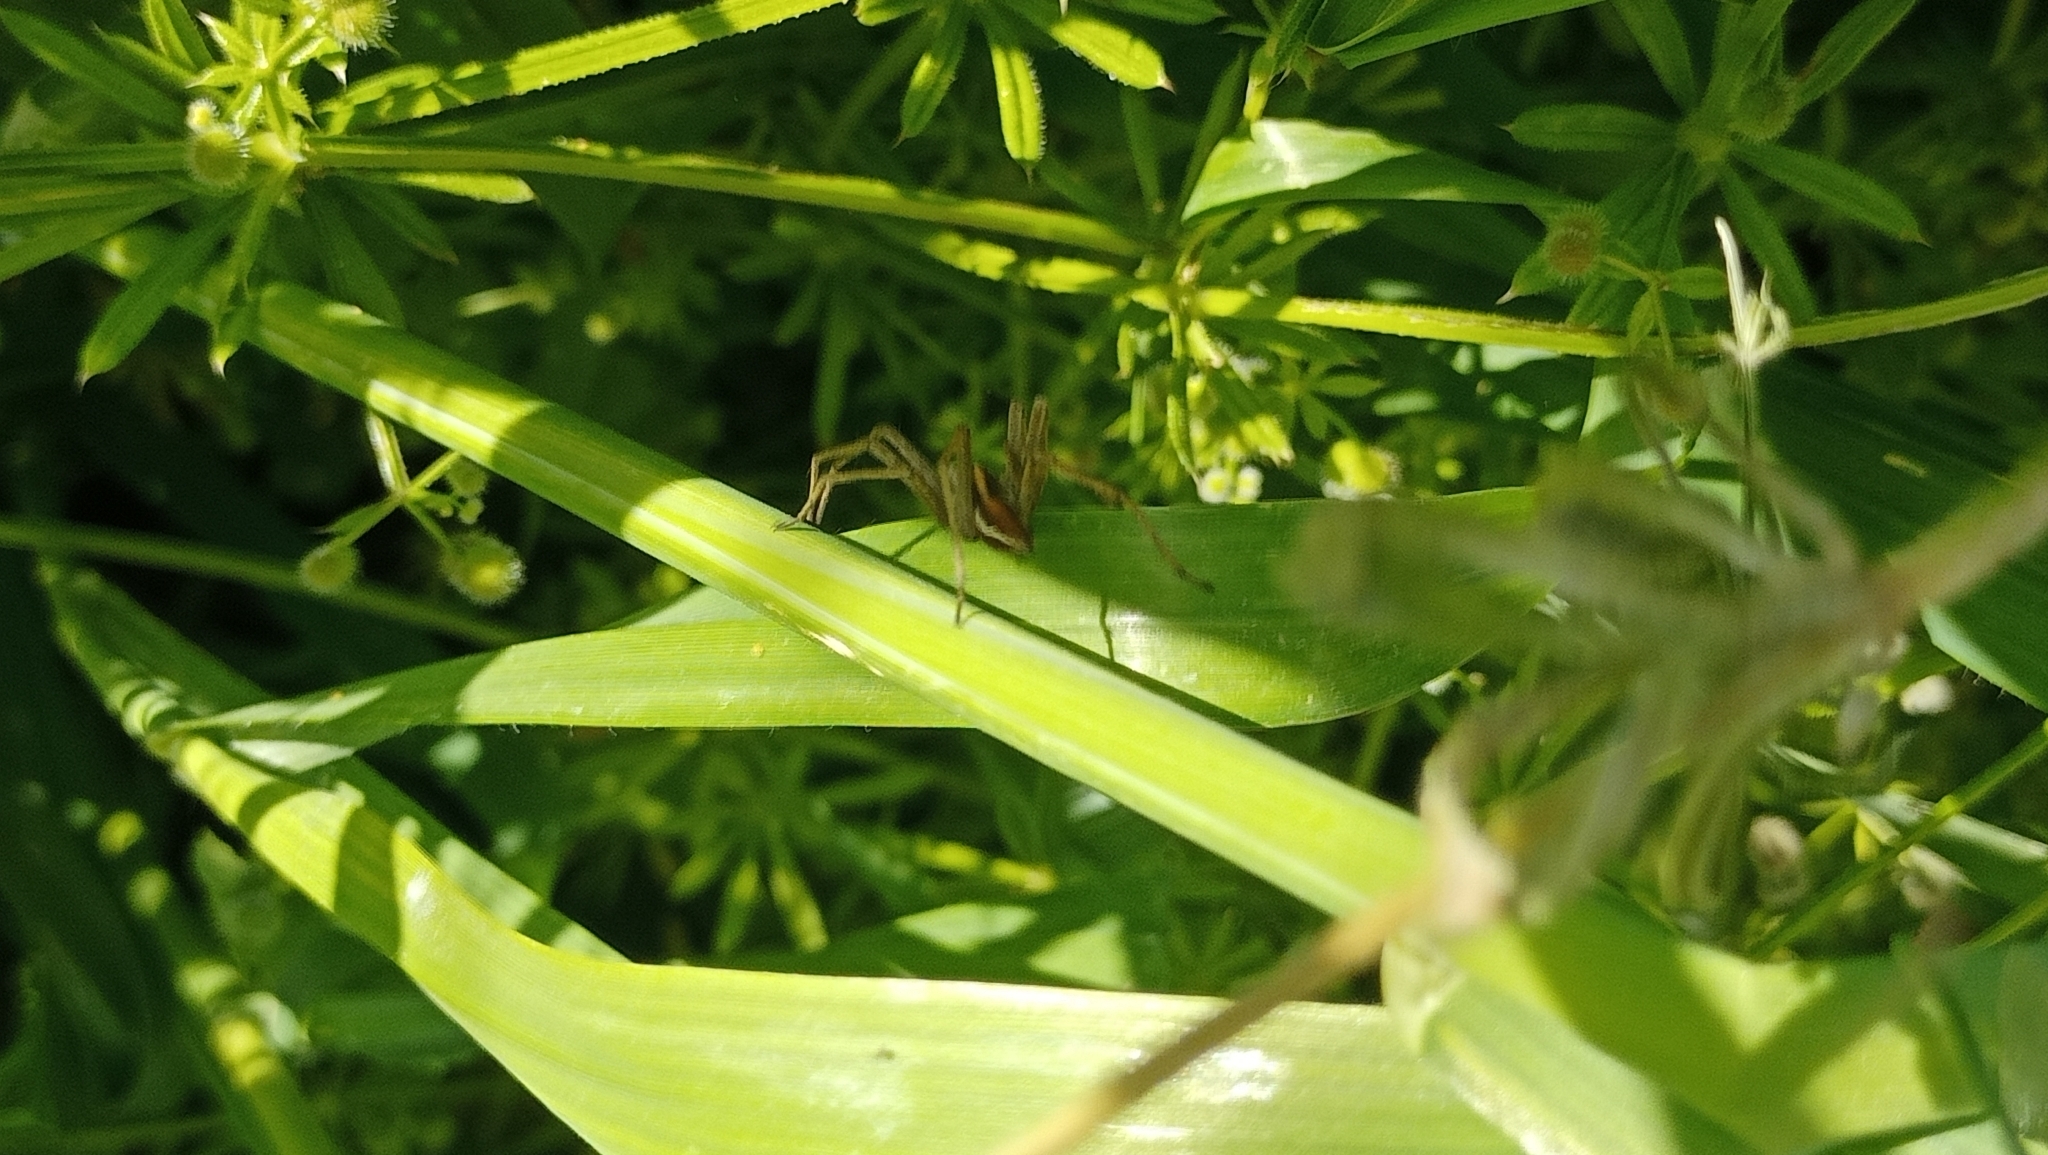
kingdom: Animalia
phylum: Arthropoda
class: Arachnida
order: Araneae
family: Pisauridae
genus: Pisaura
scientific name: Pisaura mirabilis
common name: Tent spider
